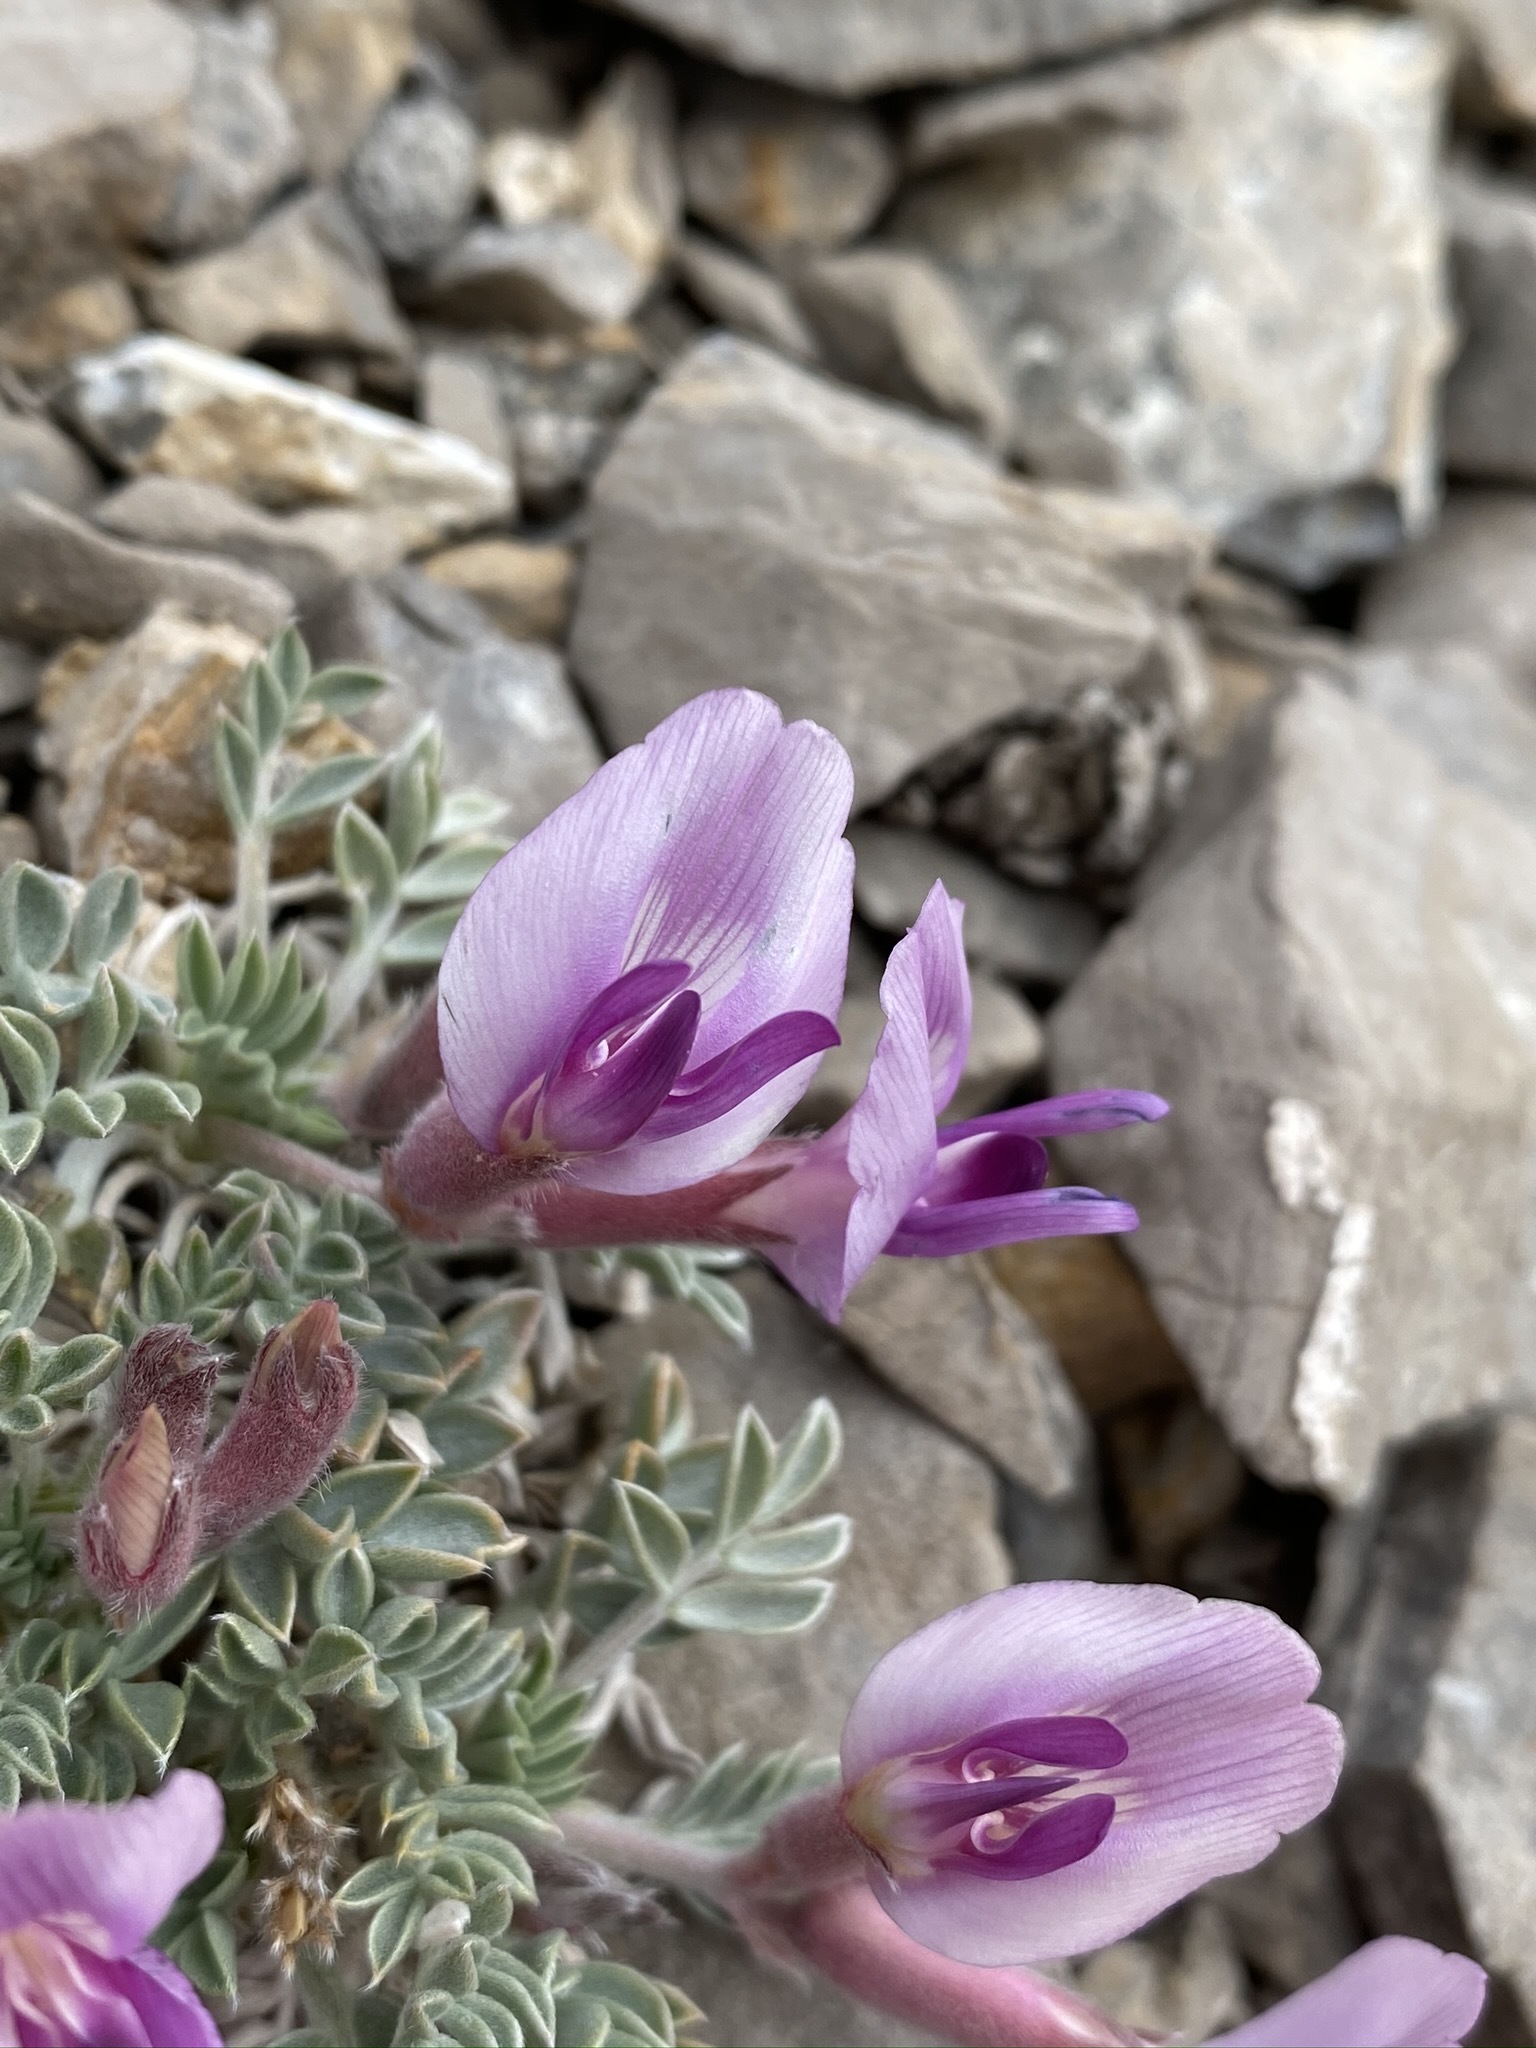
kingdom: Plantae
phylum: Tracheophyta
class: Magnoliopsida
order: Fabales
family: Fabaceae
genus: Astragalus
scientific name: Astragalus newberryi
